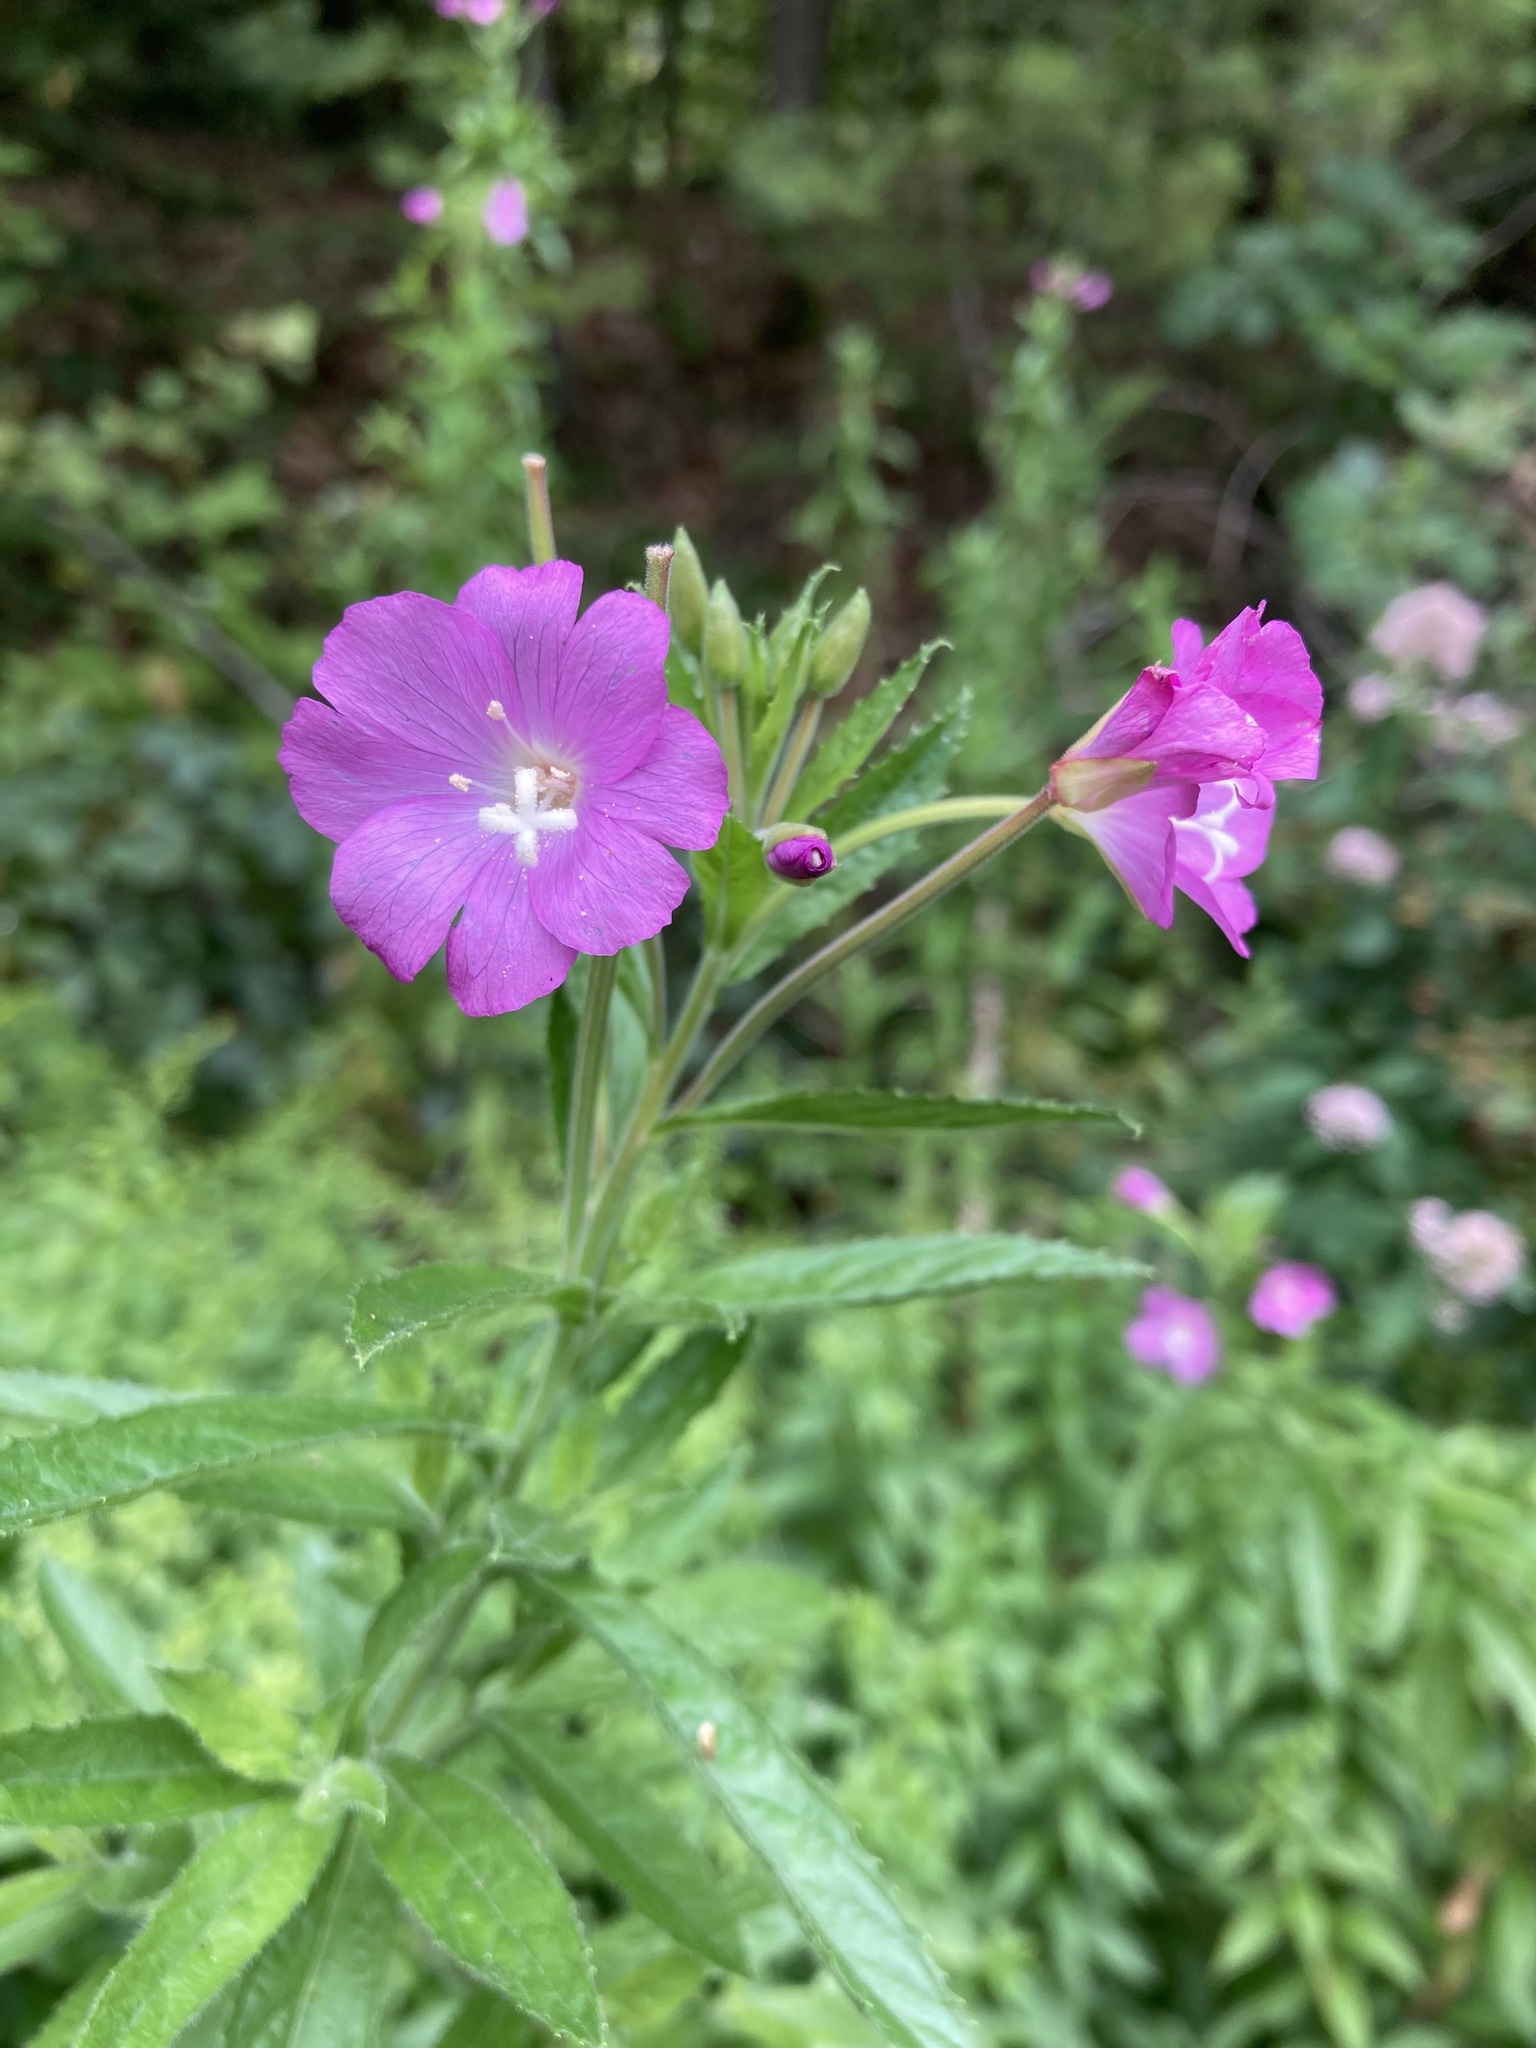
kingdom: Plantae
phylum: Tracheophyta
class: Magnoliopsida
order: Myrtales
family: Onagraceae
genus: Epilobium
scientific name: Epilobium hirsutum
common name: Great willowherb
